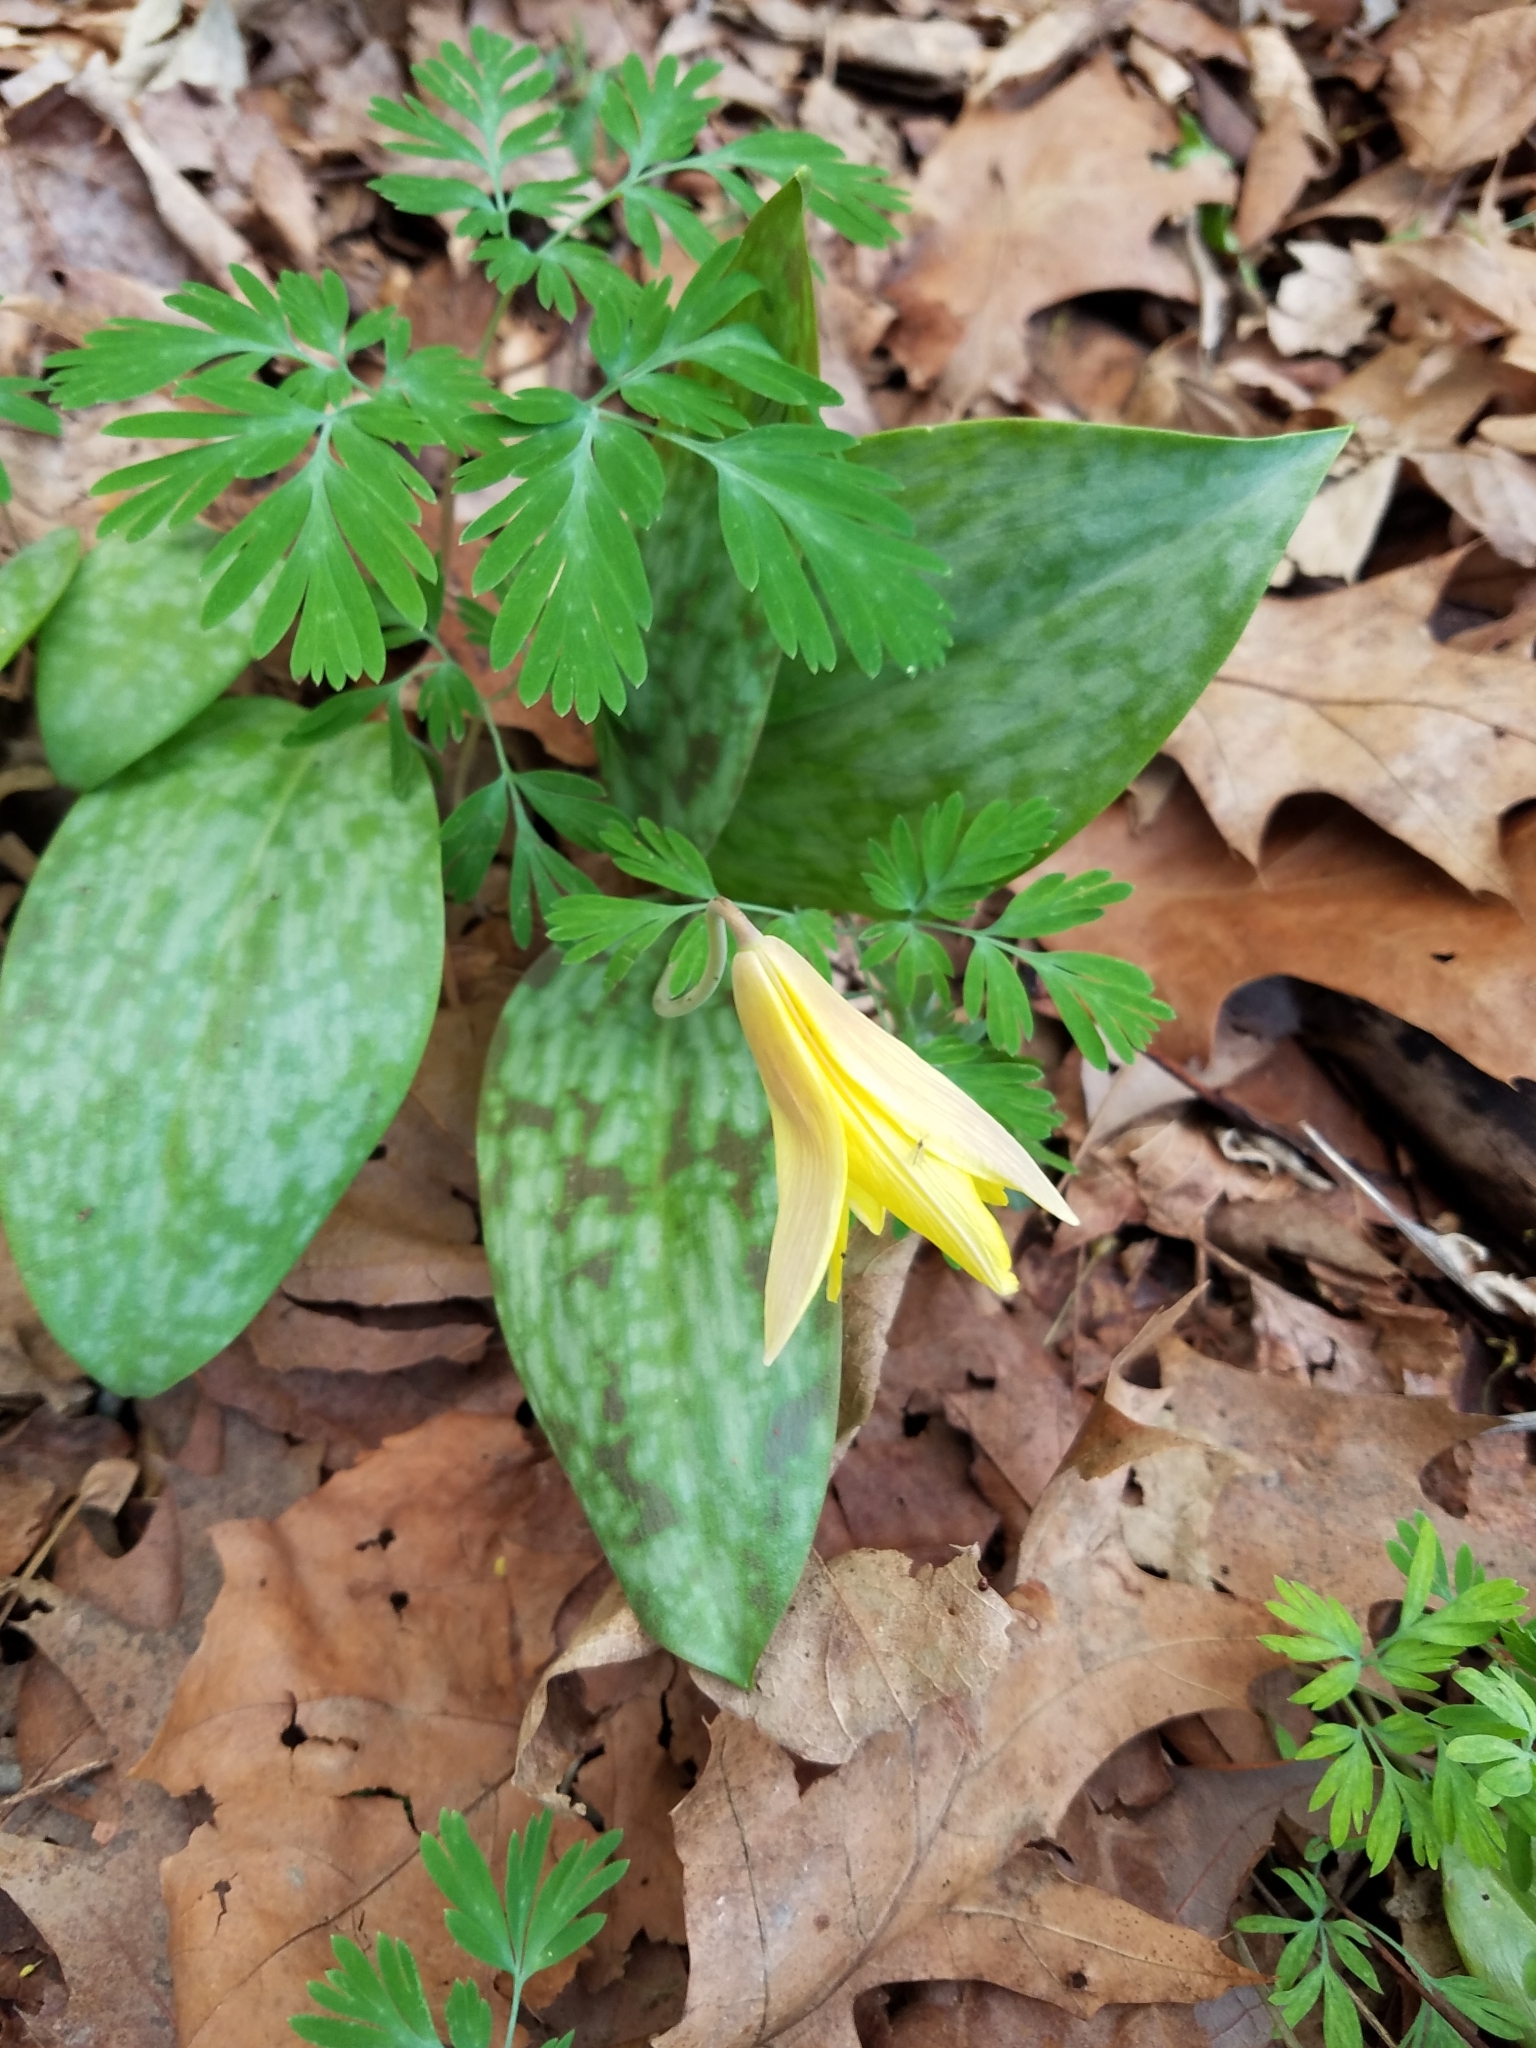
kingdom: Plantae
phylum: Tracheophyta
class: Liliopsida
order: Liliales
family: Liliaceae
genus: Erythronium
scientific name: Erythronium americanum
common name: Yellow adder's-tongue
